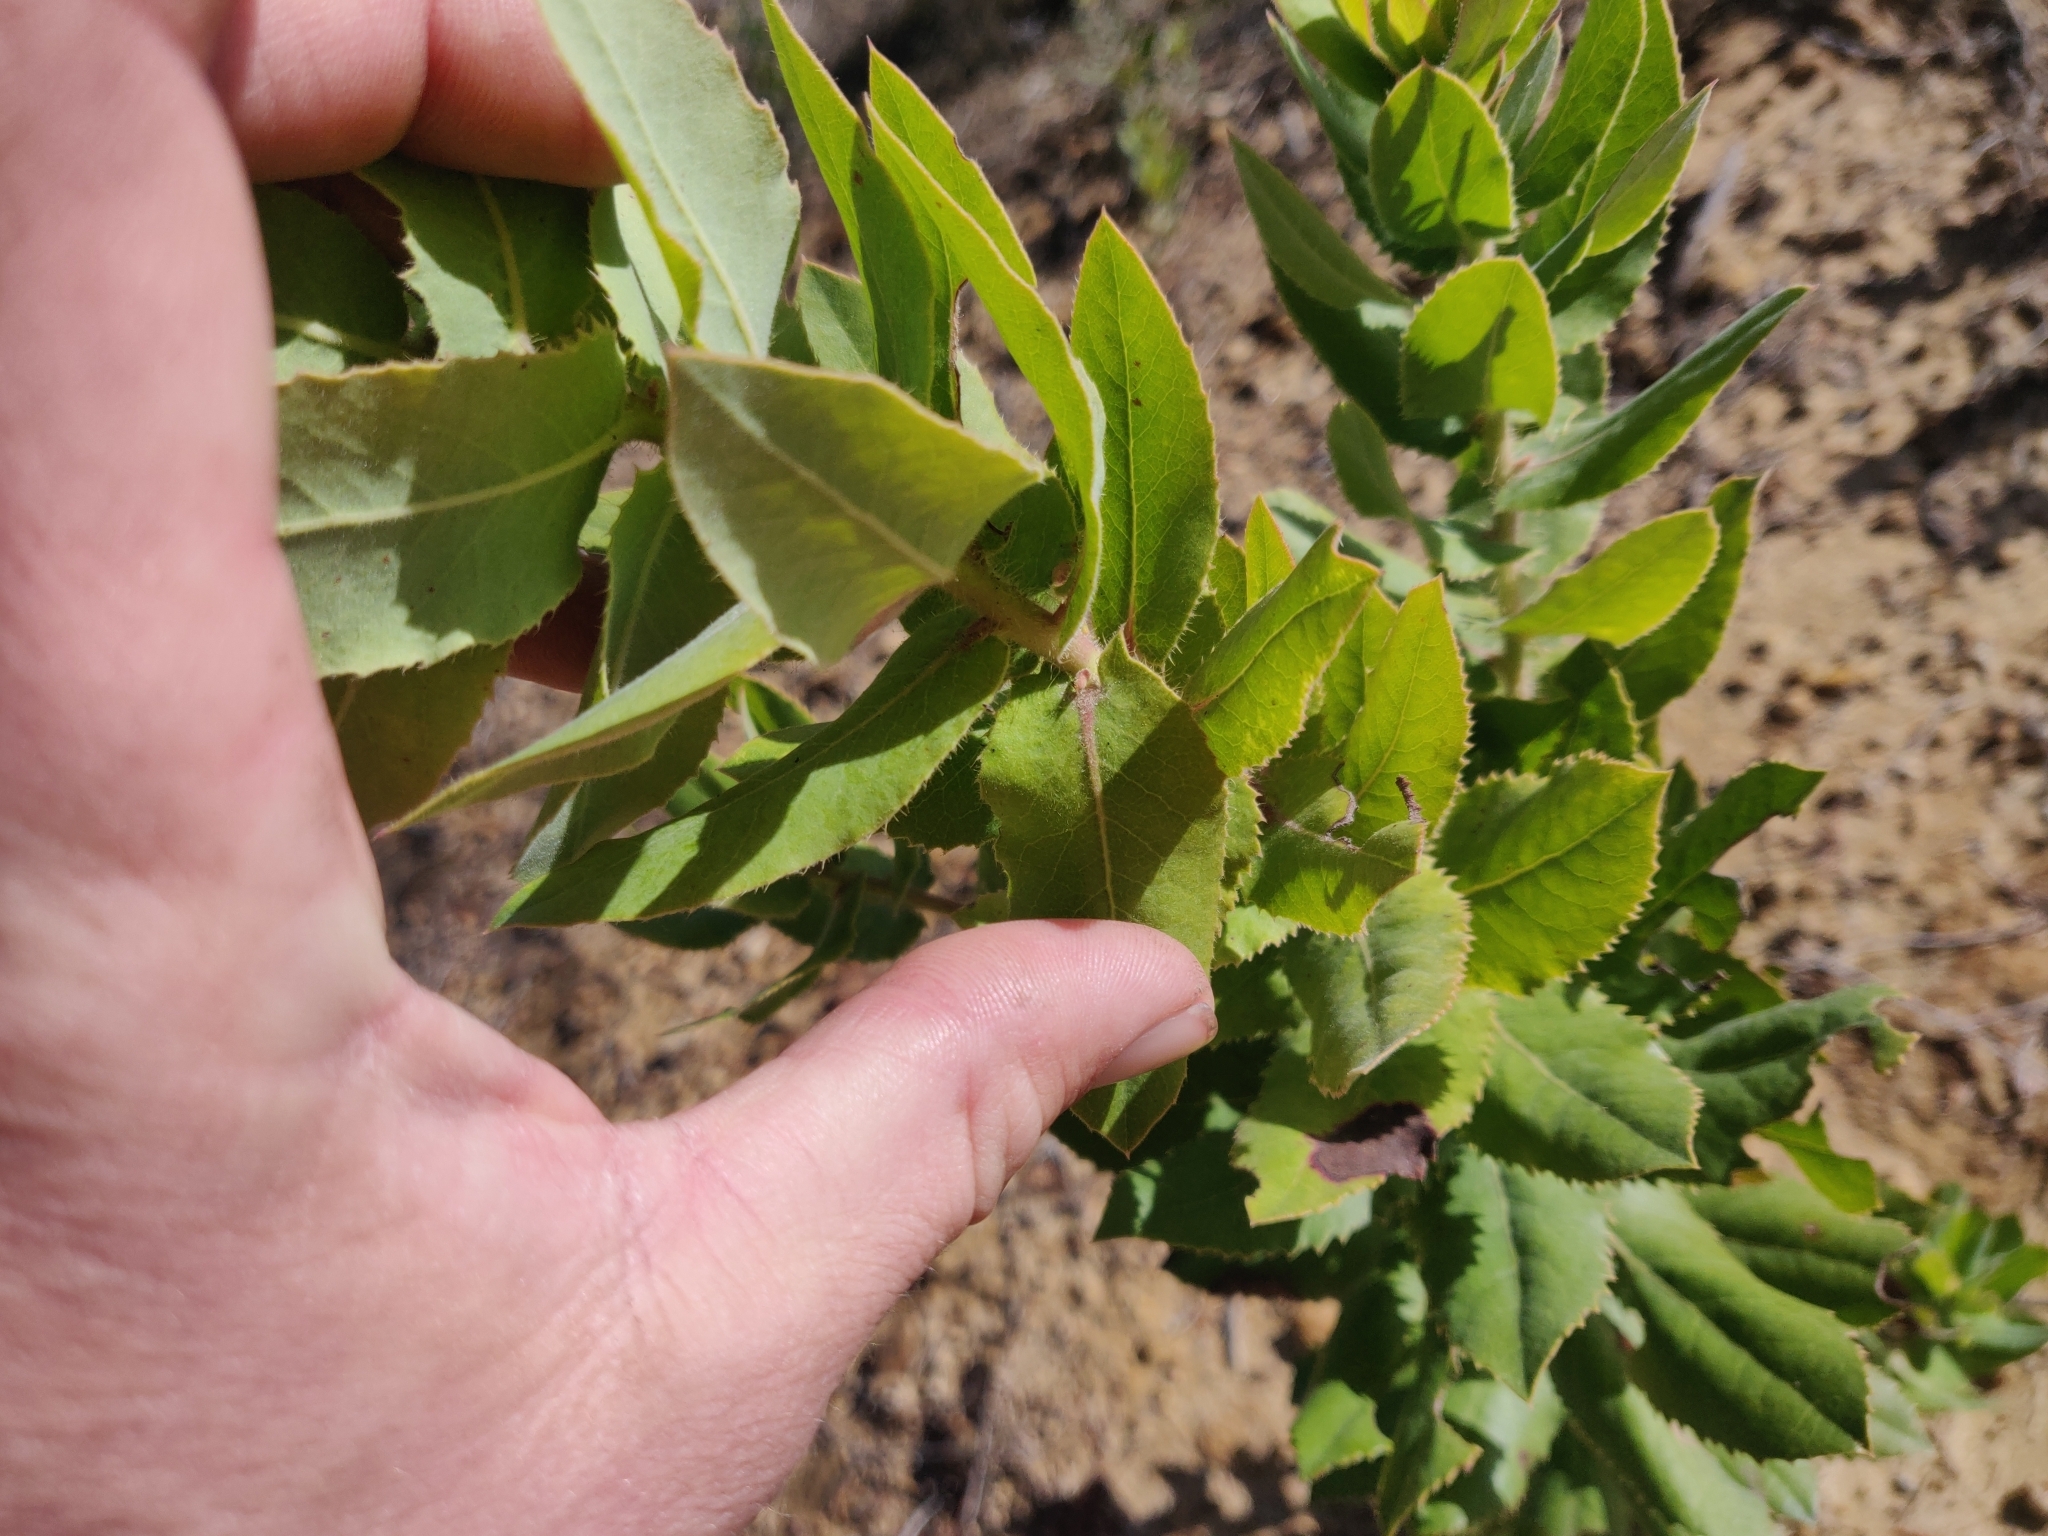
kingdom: Plantae
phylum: Tracheophyta
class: Magnoliopsida
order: Ericales
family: Ericaceae
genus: Arctostaphylos
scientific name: Arctostaphylos andersonii
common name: Santa cruz manzanita
